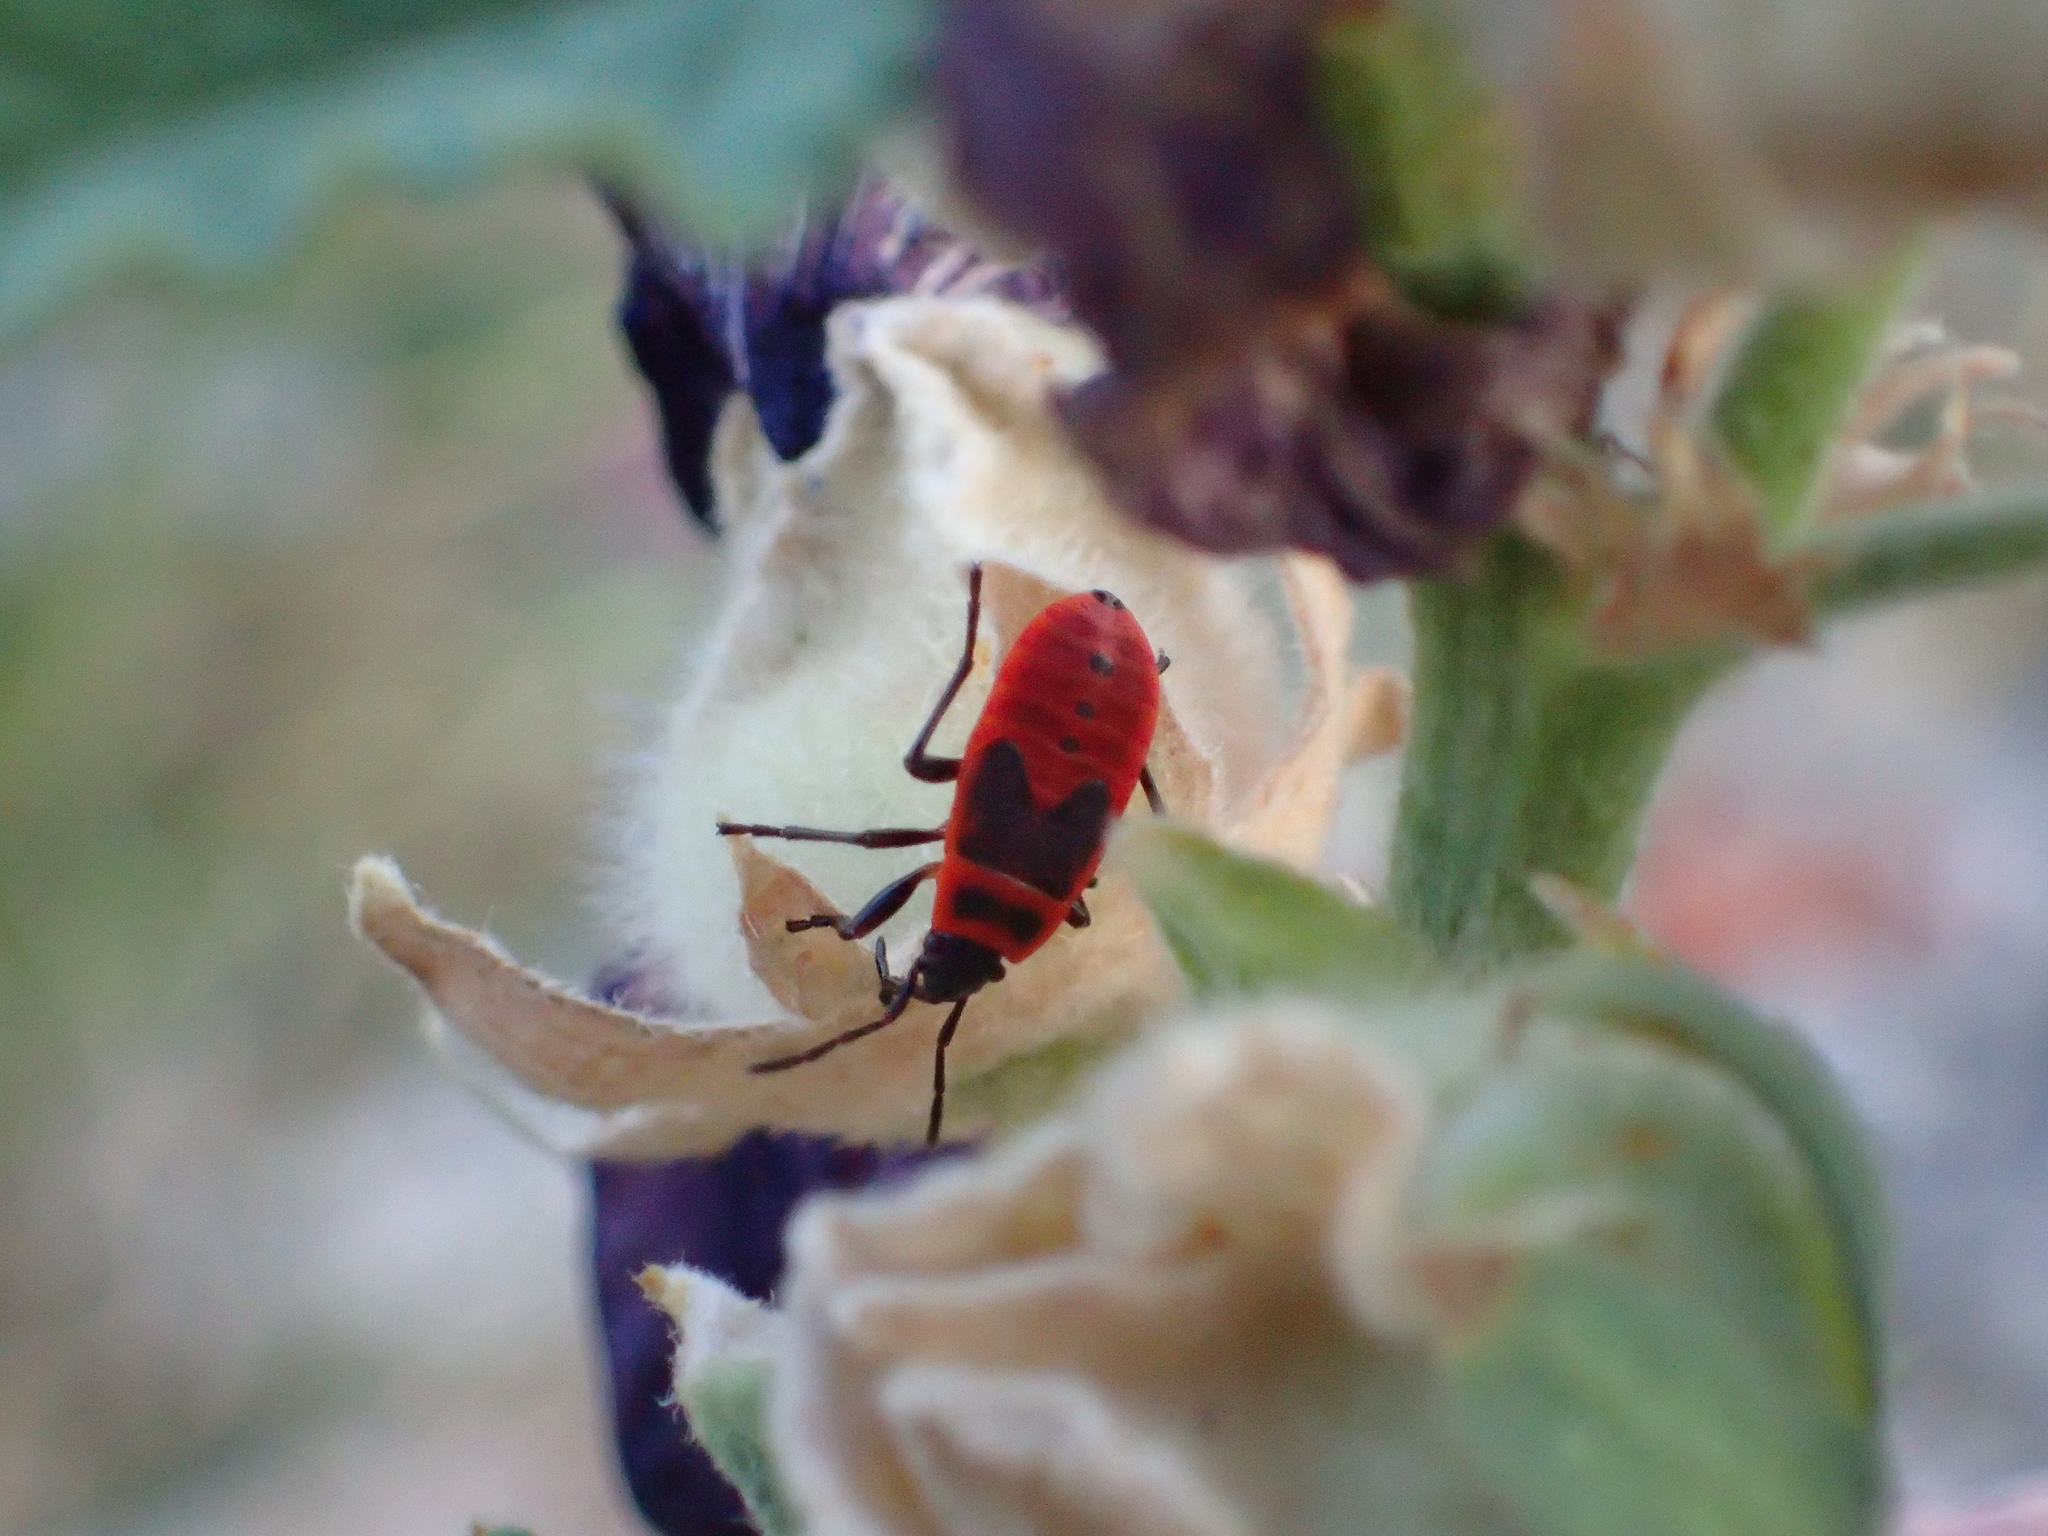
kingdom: Animalia
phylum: Arthropoda
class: Insecta
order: Hemiptera
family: Pyrrhocoridae
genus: Pyrrhocoris
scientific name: Pyrrhocoris apterus
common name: Firebug
